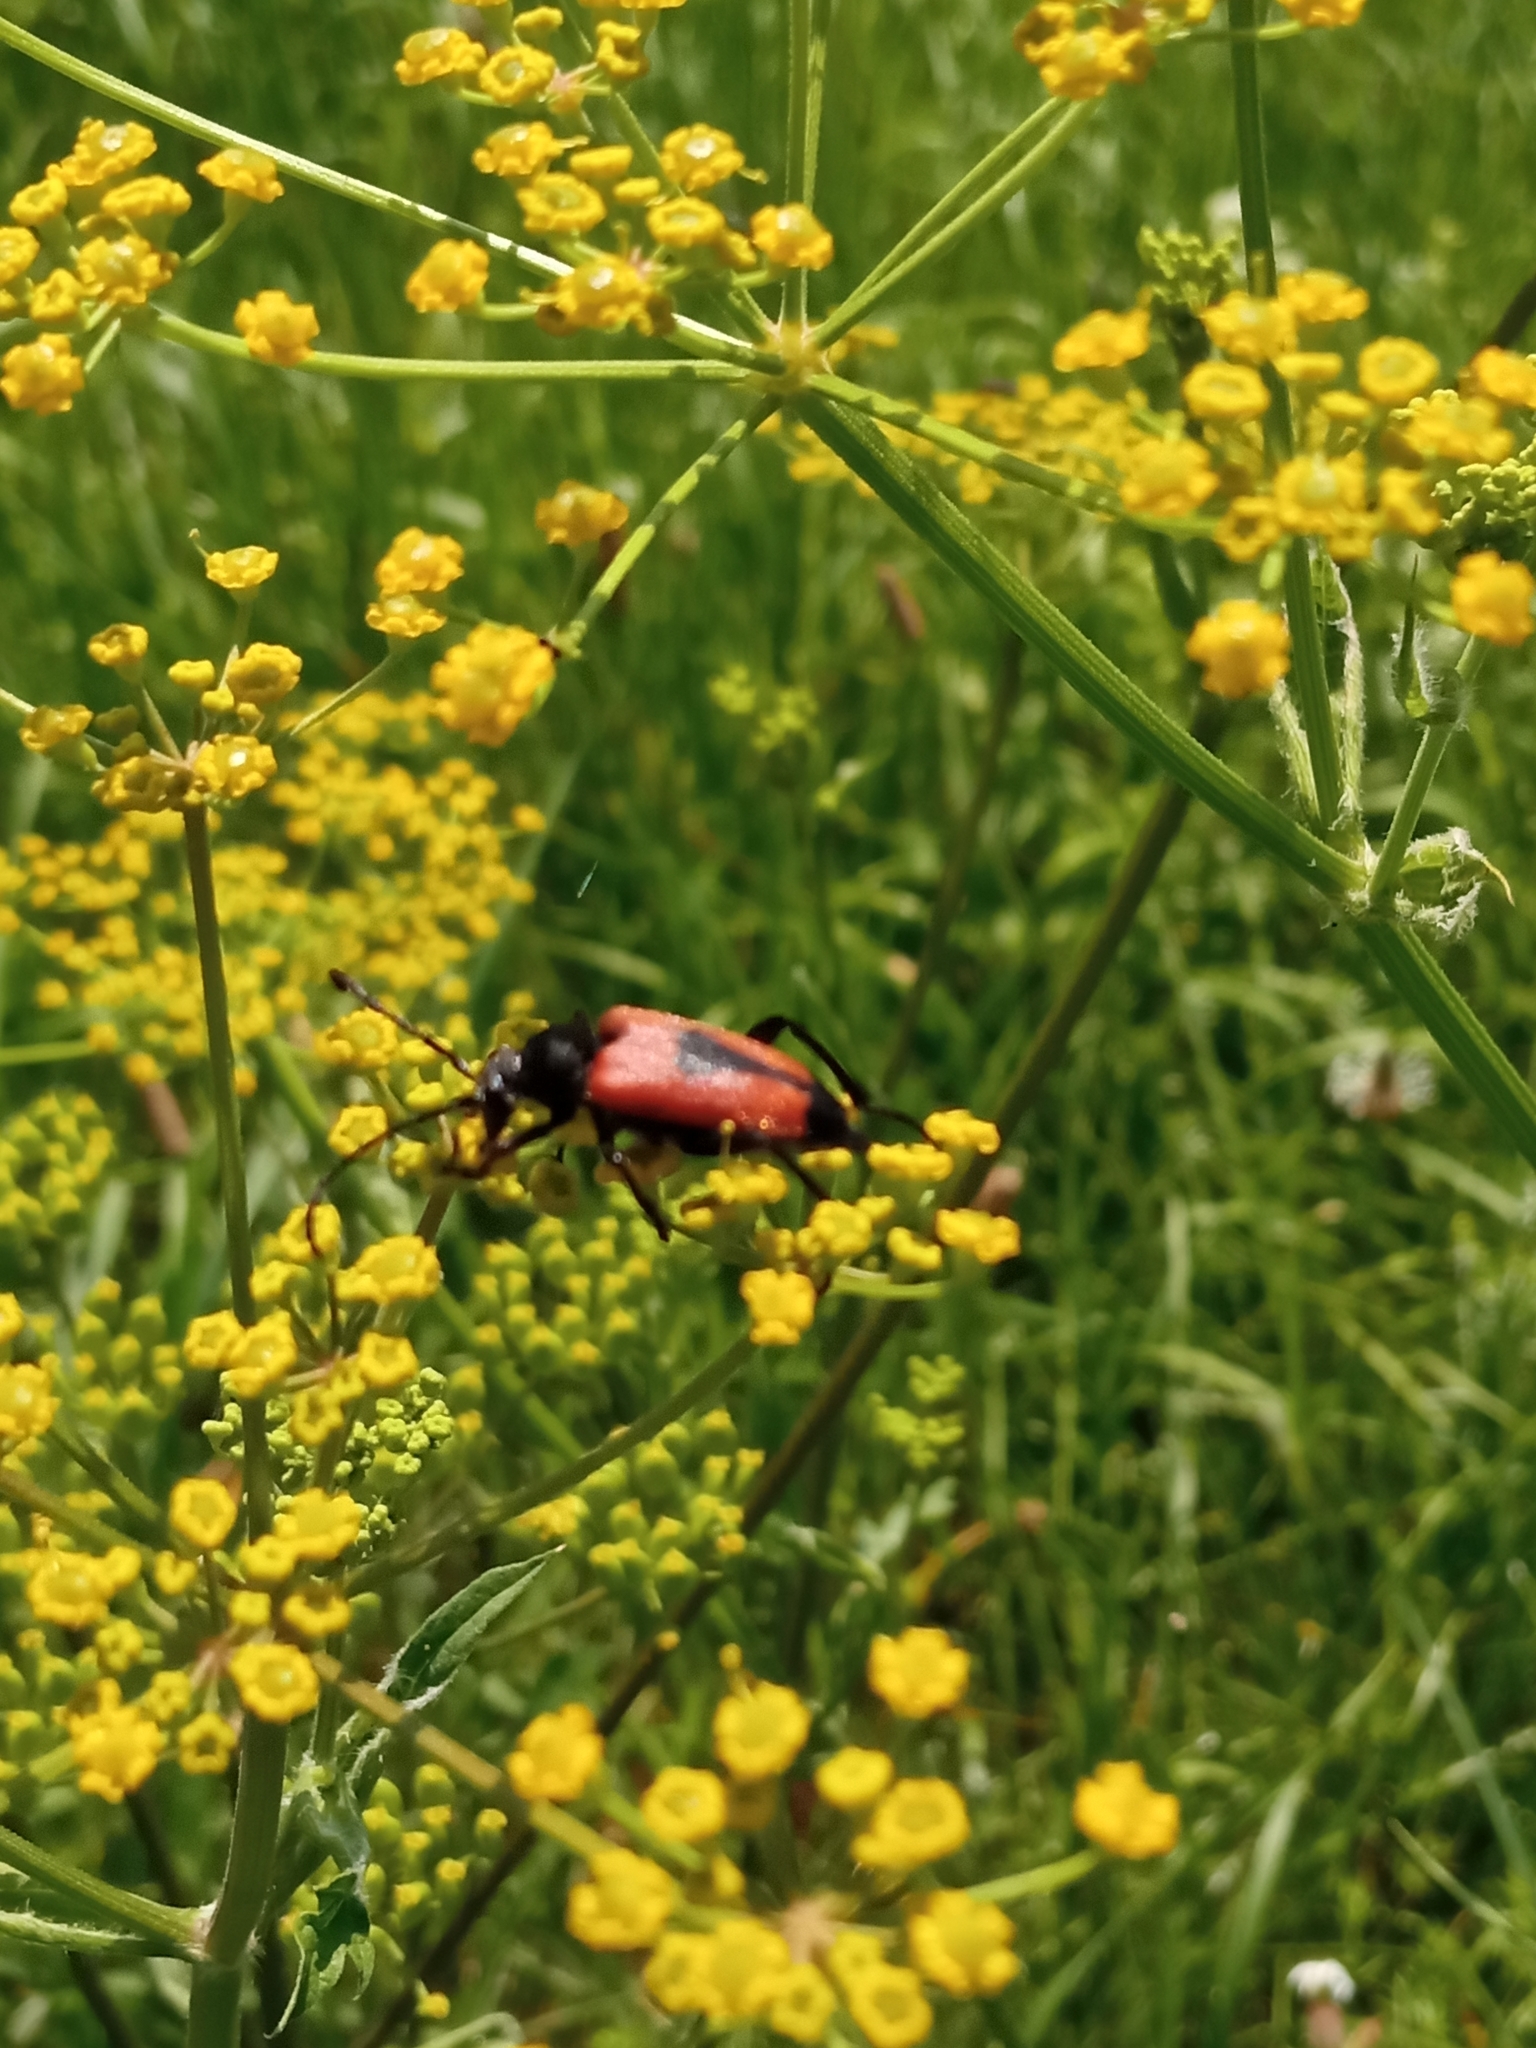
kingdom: Animalia
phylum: Arthropoda
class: Insecta
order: Coleoptera
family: Cerambycidae
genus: Stictoleptura
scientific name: Stictoleptura cordigera
